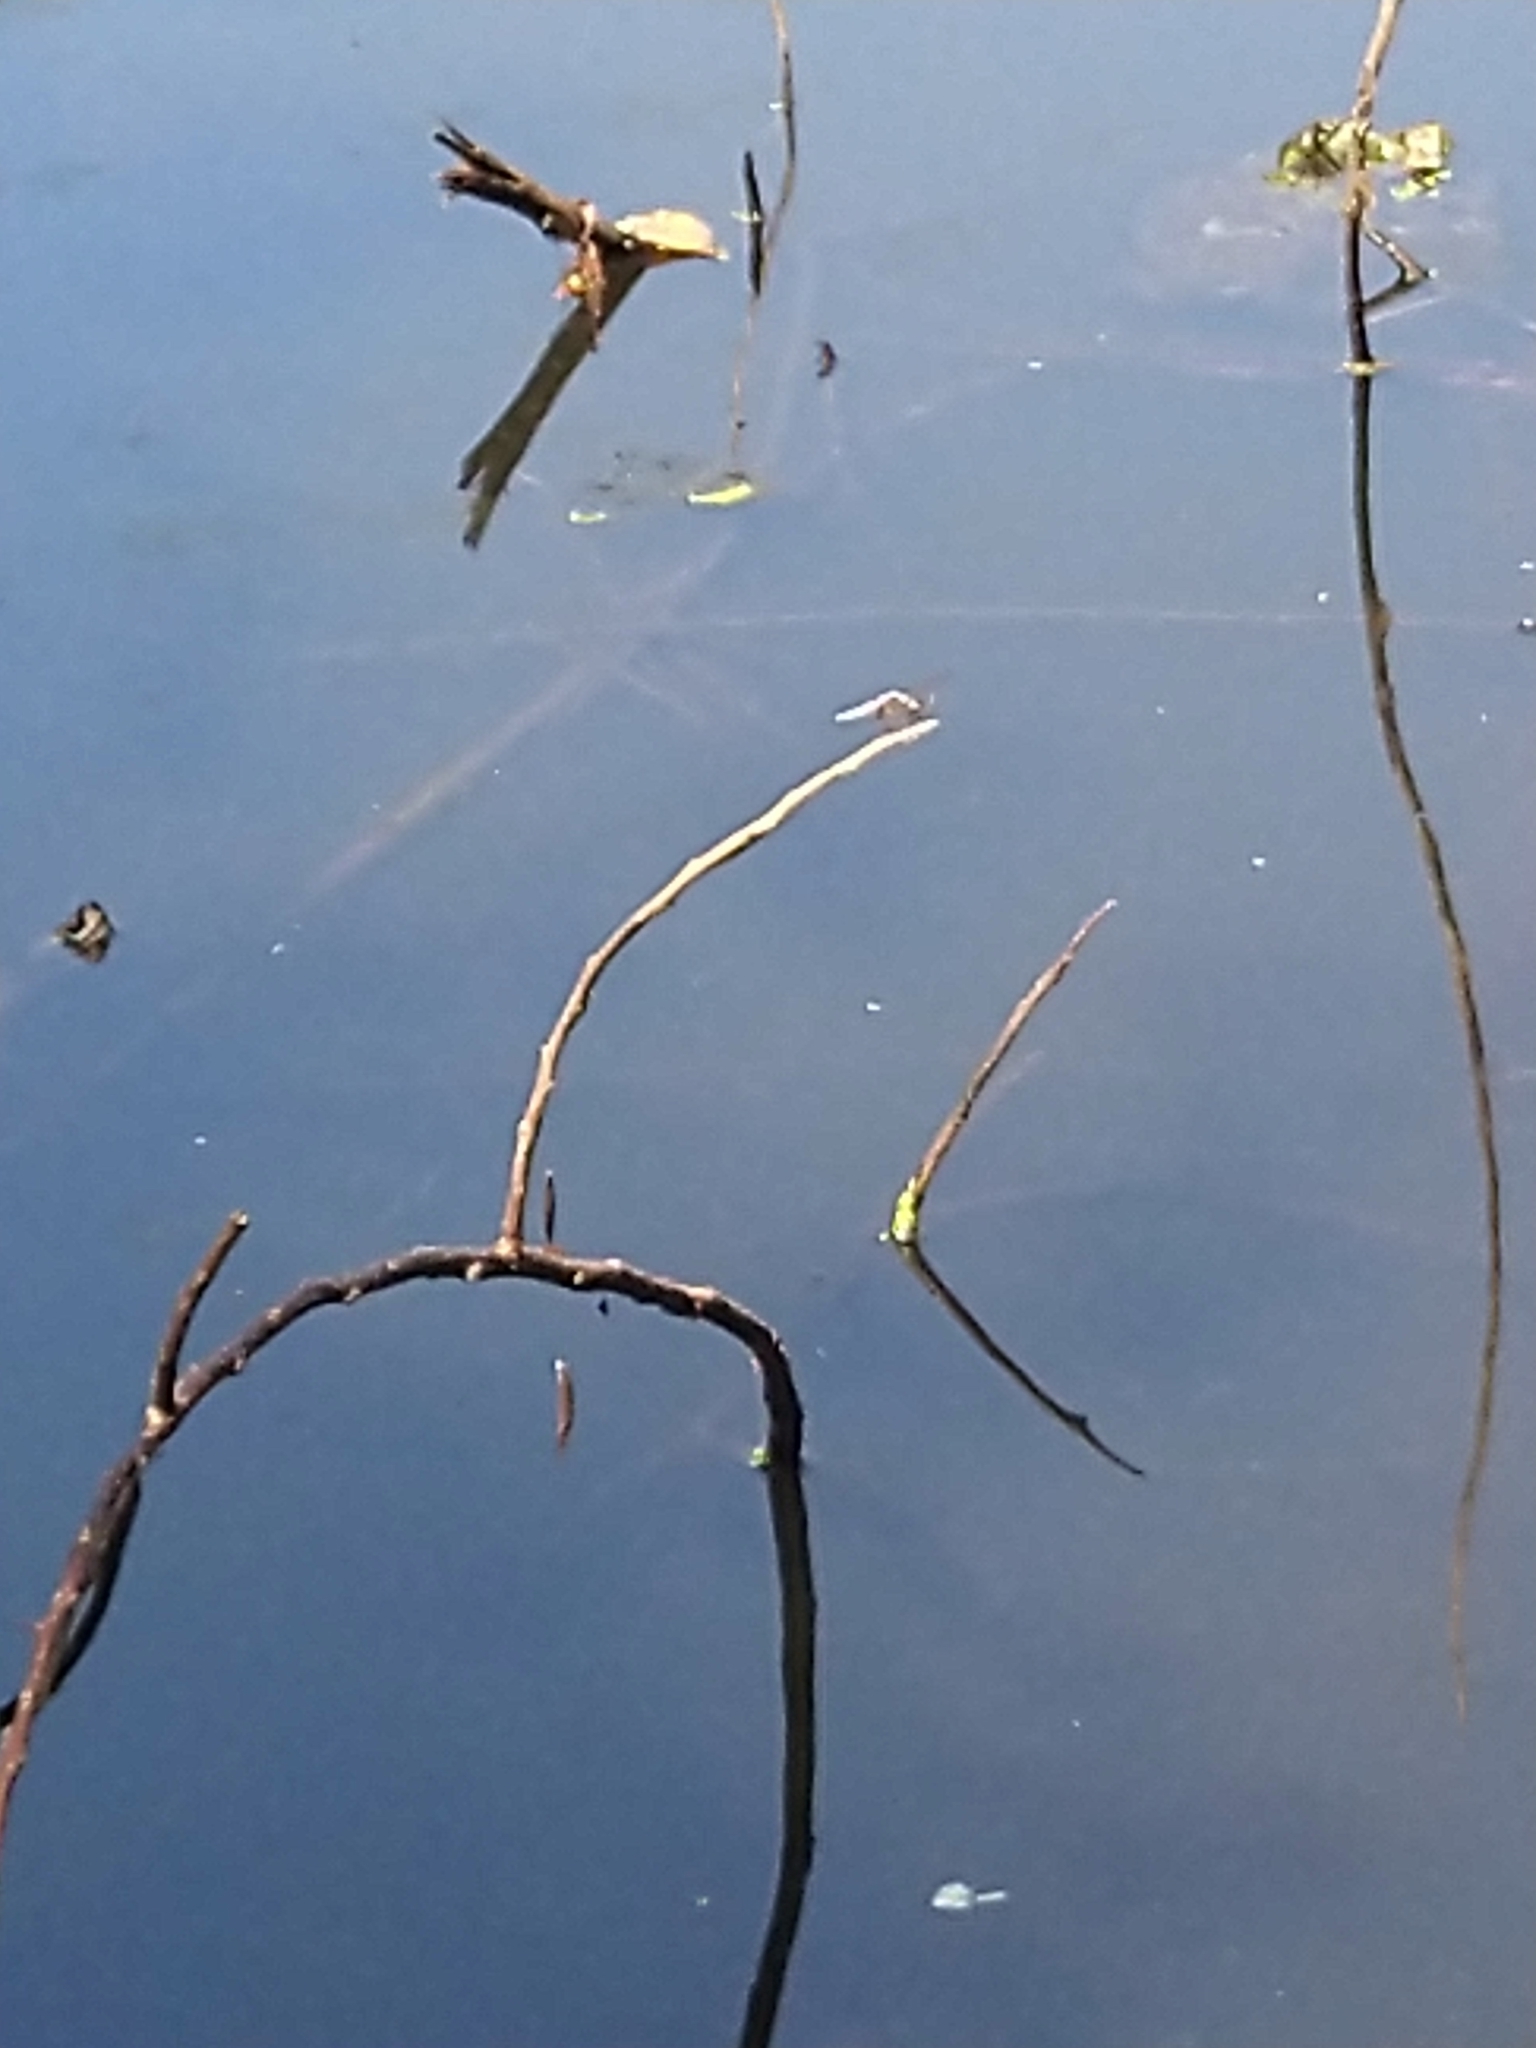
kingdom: Animalia
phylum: Arthropoda
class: Insecta
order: Odonata
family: Libellulidae
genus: Brachydiplax
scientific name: Brachydiplax chalybea
